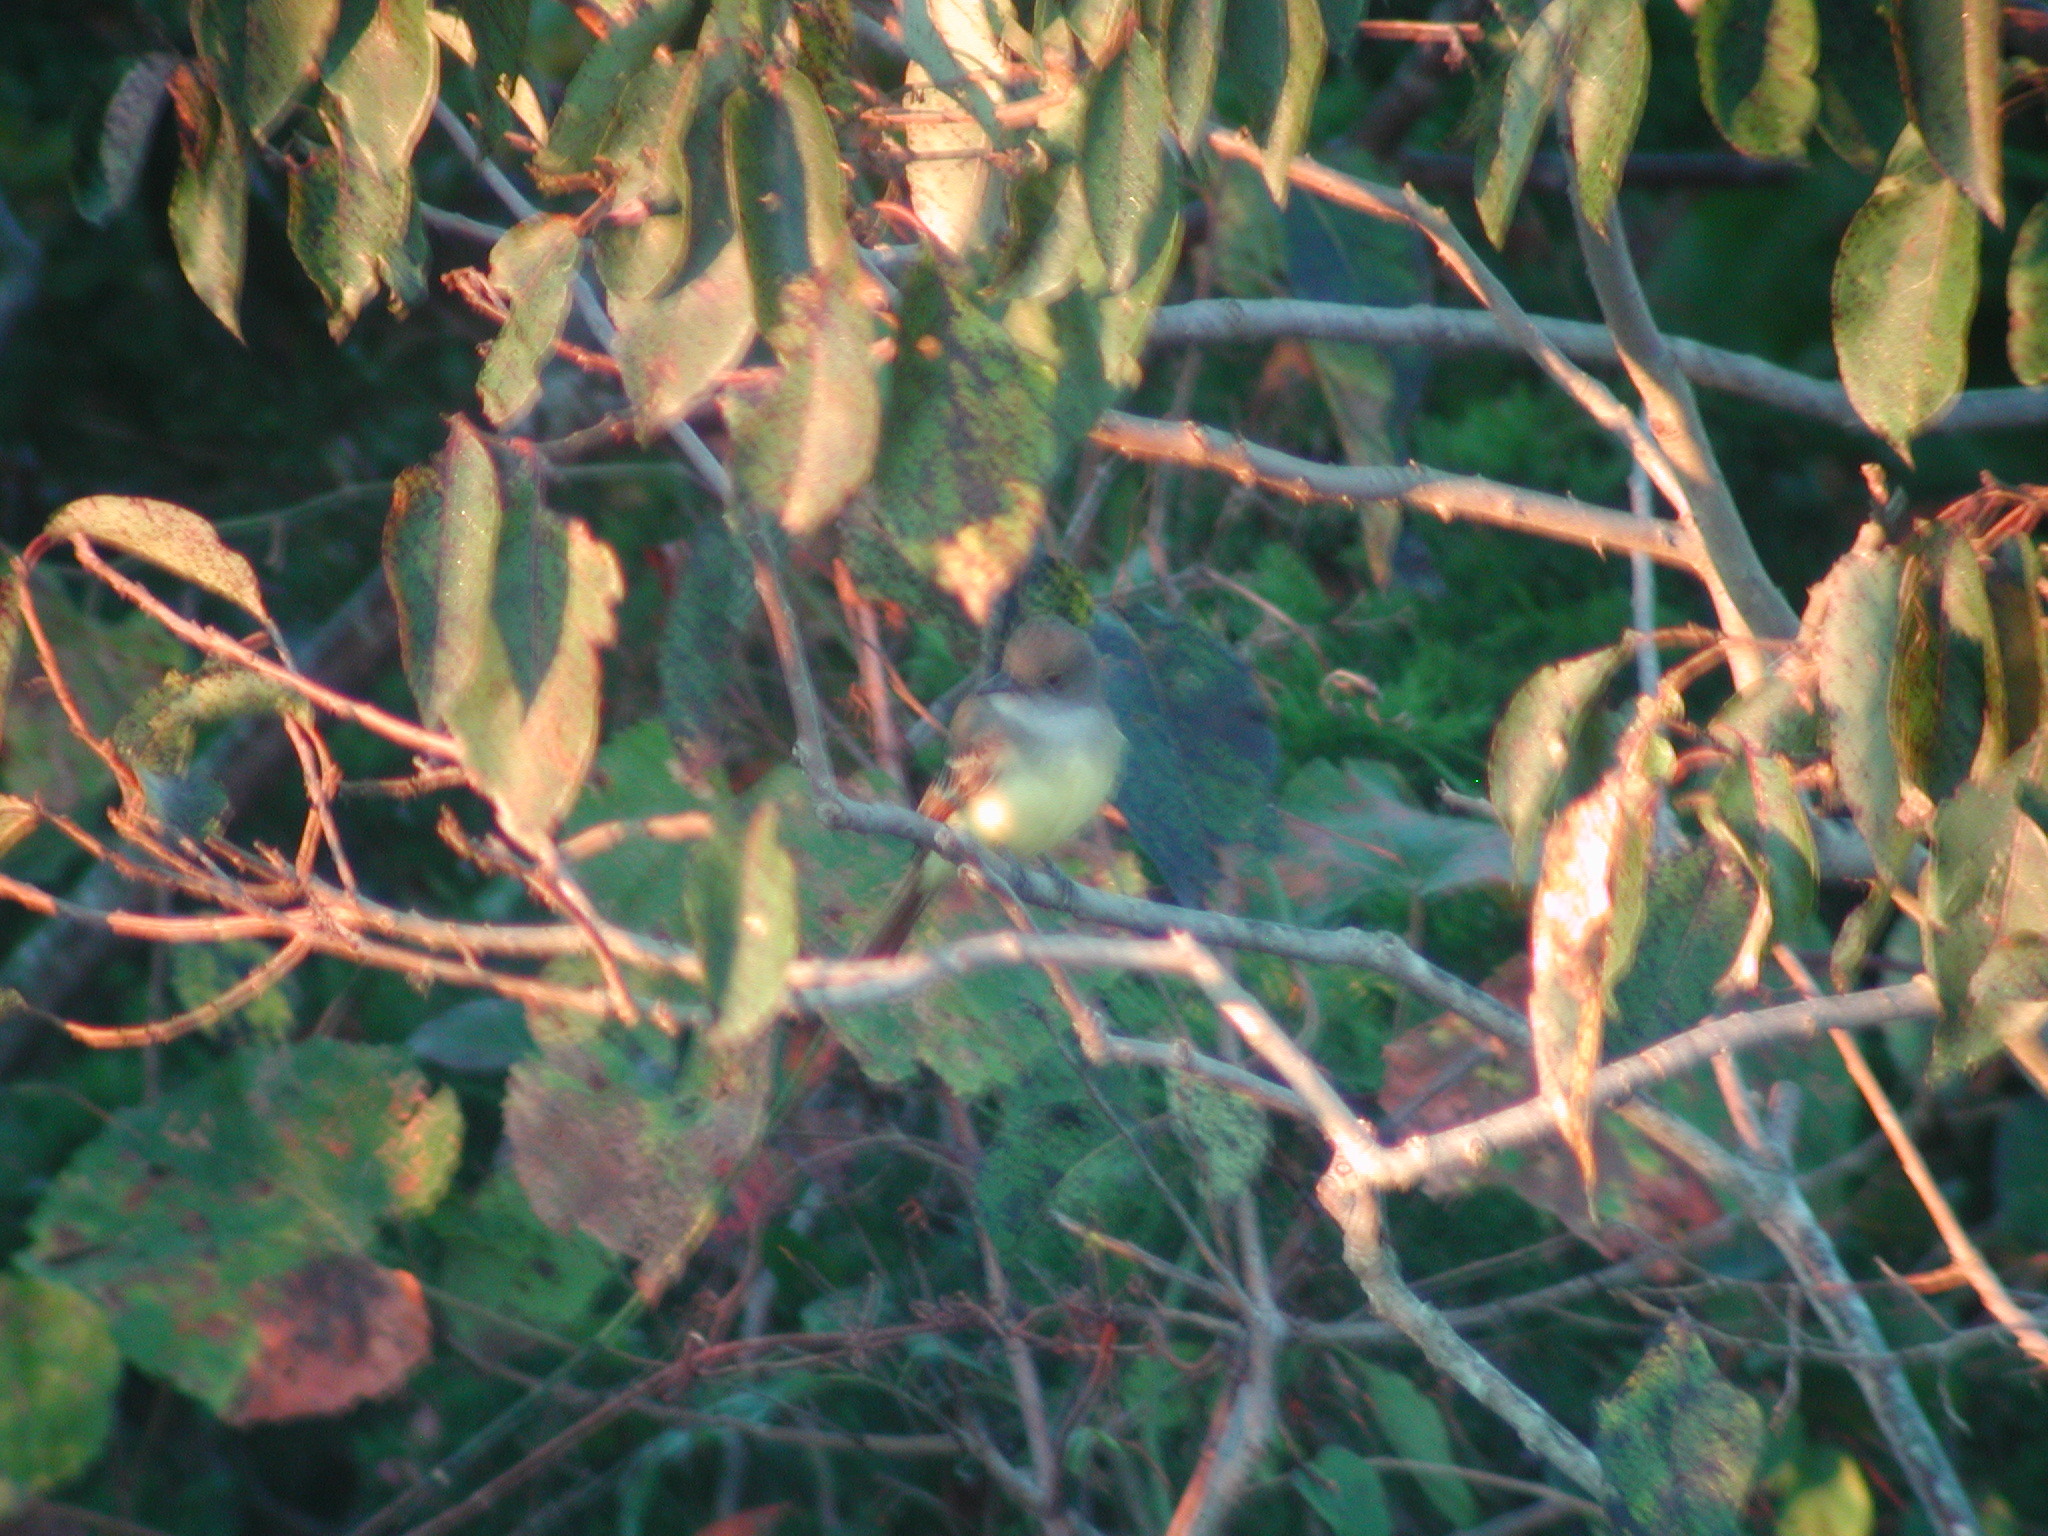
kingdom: Animalia
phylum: Chordata
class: Aves
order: Passeriformes
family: Tyrannidae
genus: Myiarchus
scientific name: Myiarchus crinitus
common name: Great crested flycatcher
